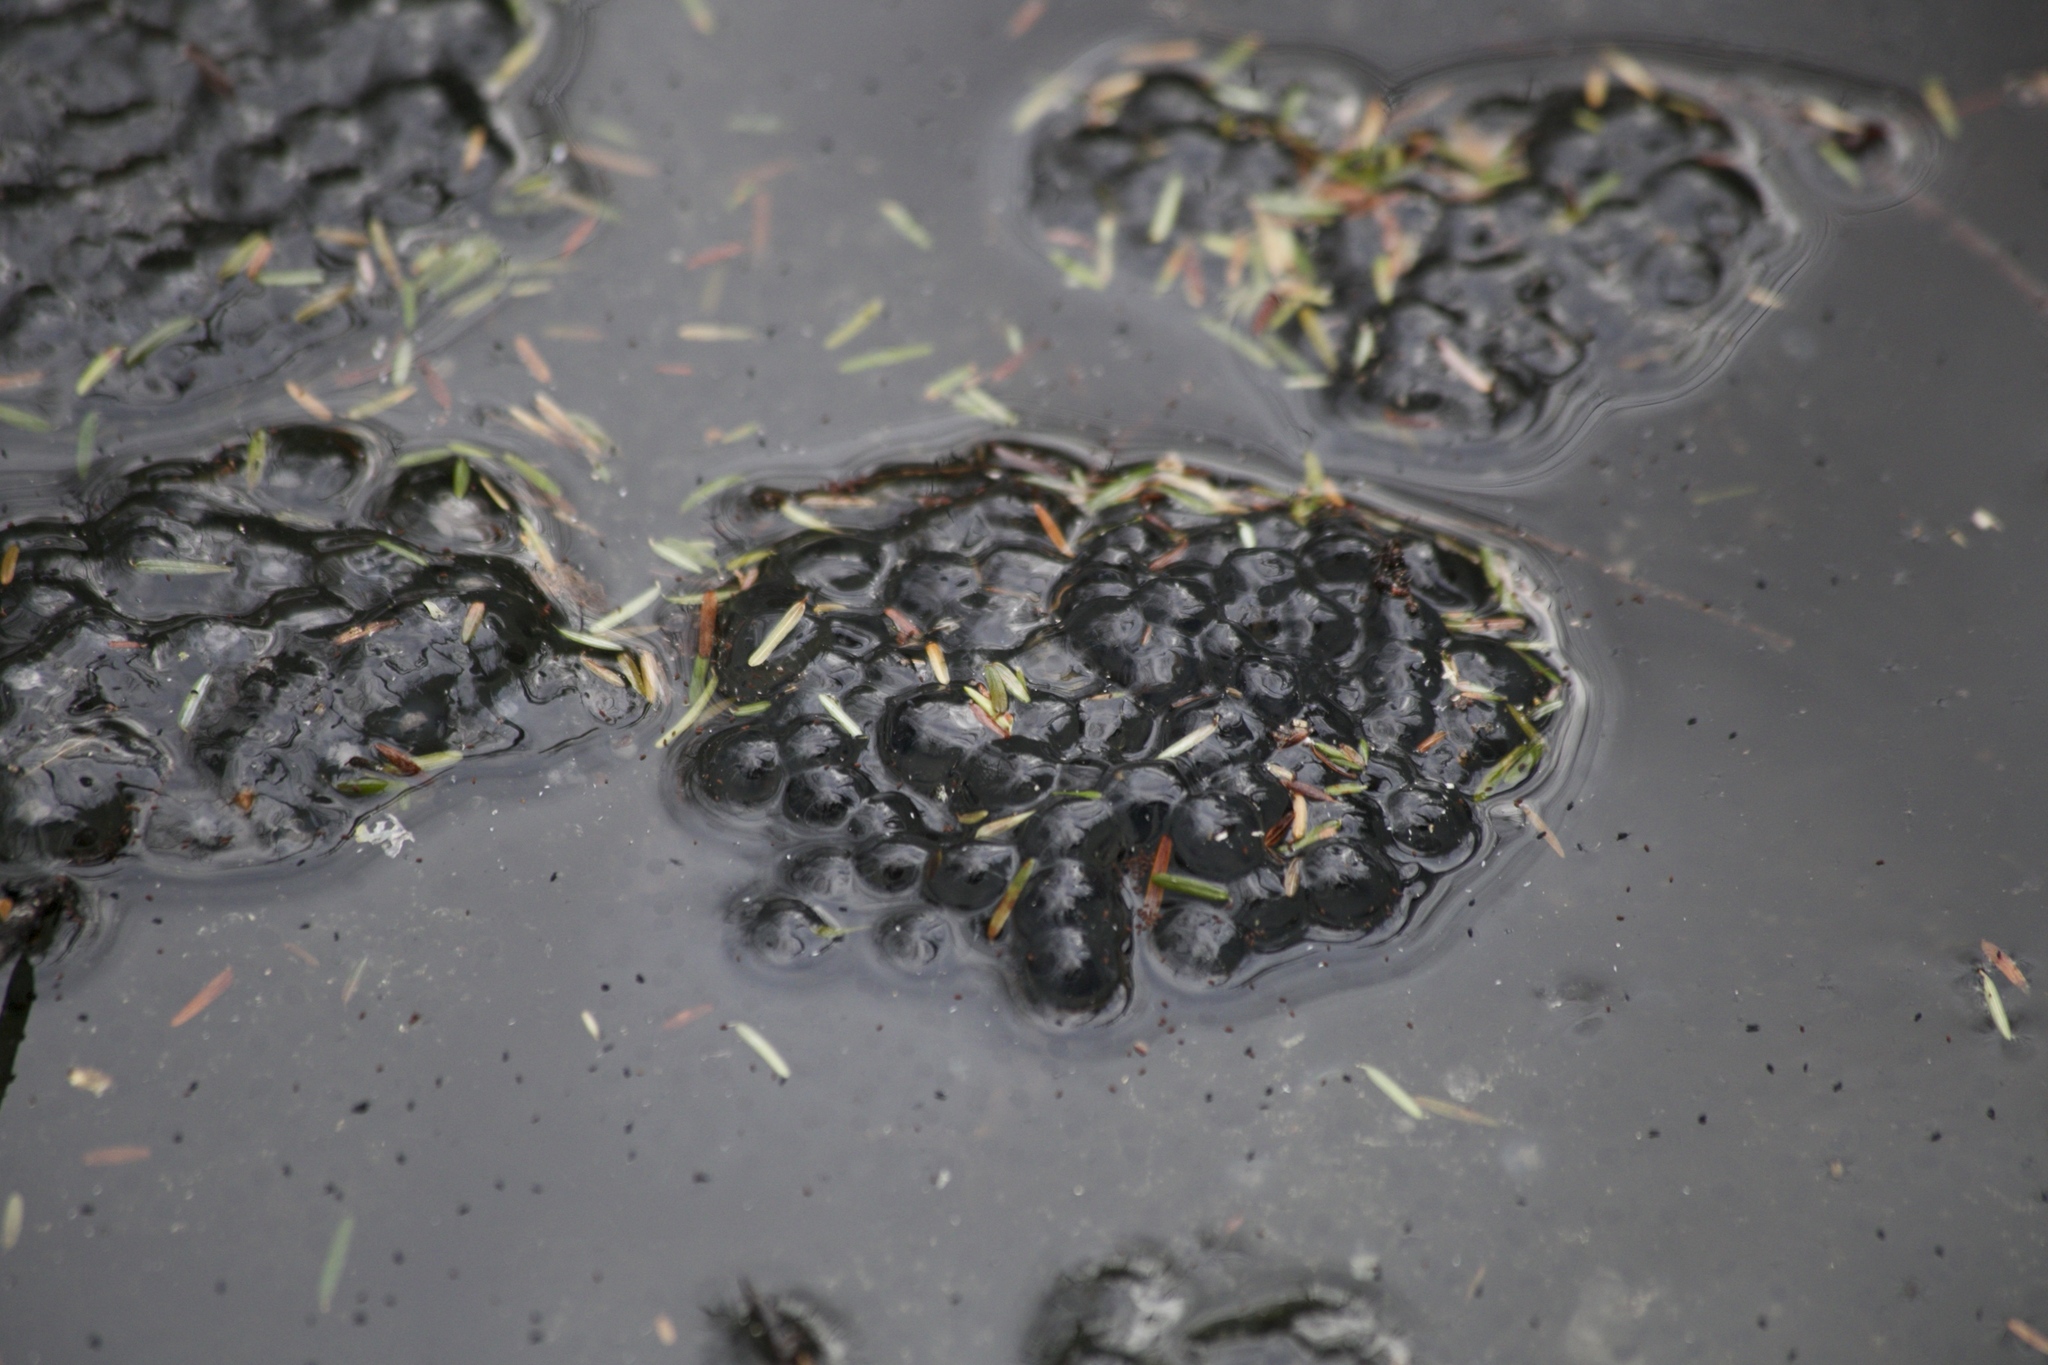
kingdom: Animalia
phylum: Chordata
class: Amphibia
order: Anura
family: Ranidae
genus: Lithobates
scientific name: Lithobates sylvaticus
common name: Wood frog
